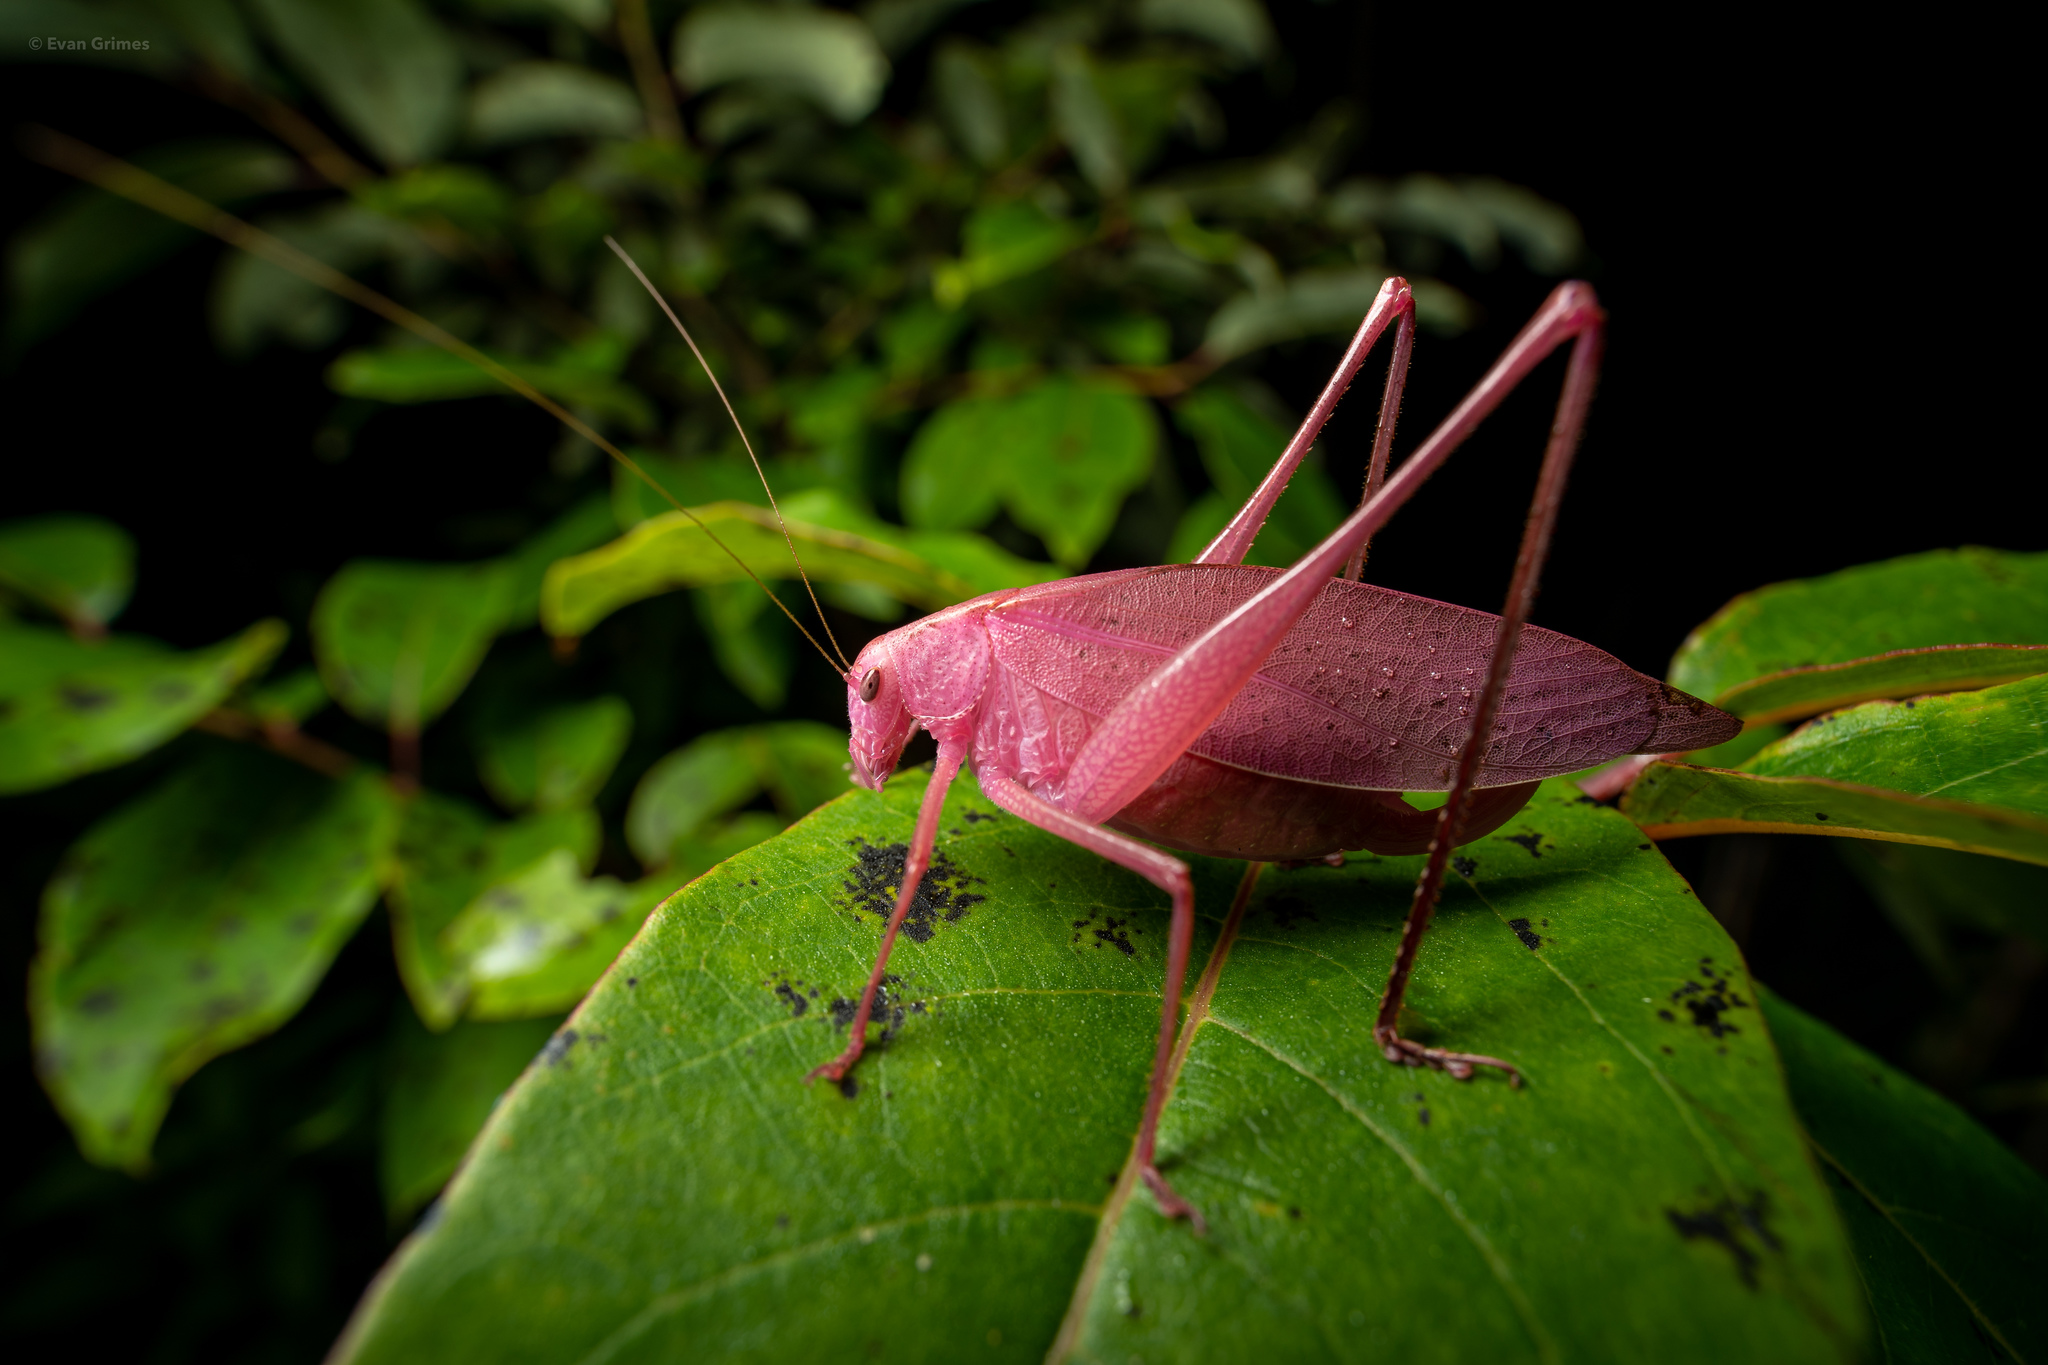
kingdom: Animalia
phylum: Arthropoda
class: Insecta
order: Orthoptera
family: Tettigoniidae
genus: Amblycorypha
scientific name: Amblycorypha oblongifolia
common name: Oblong-winged katydid
